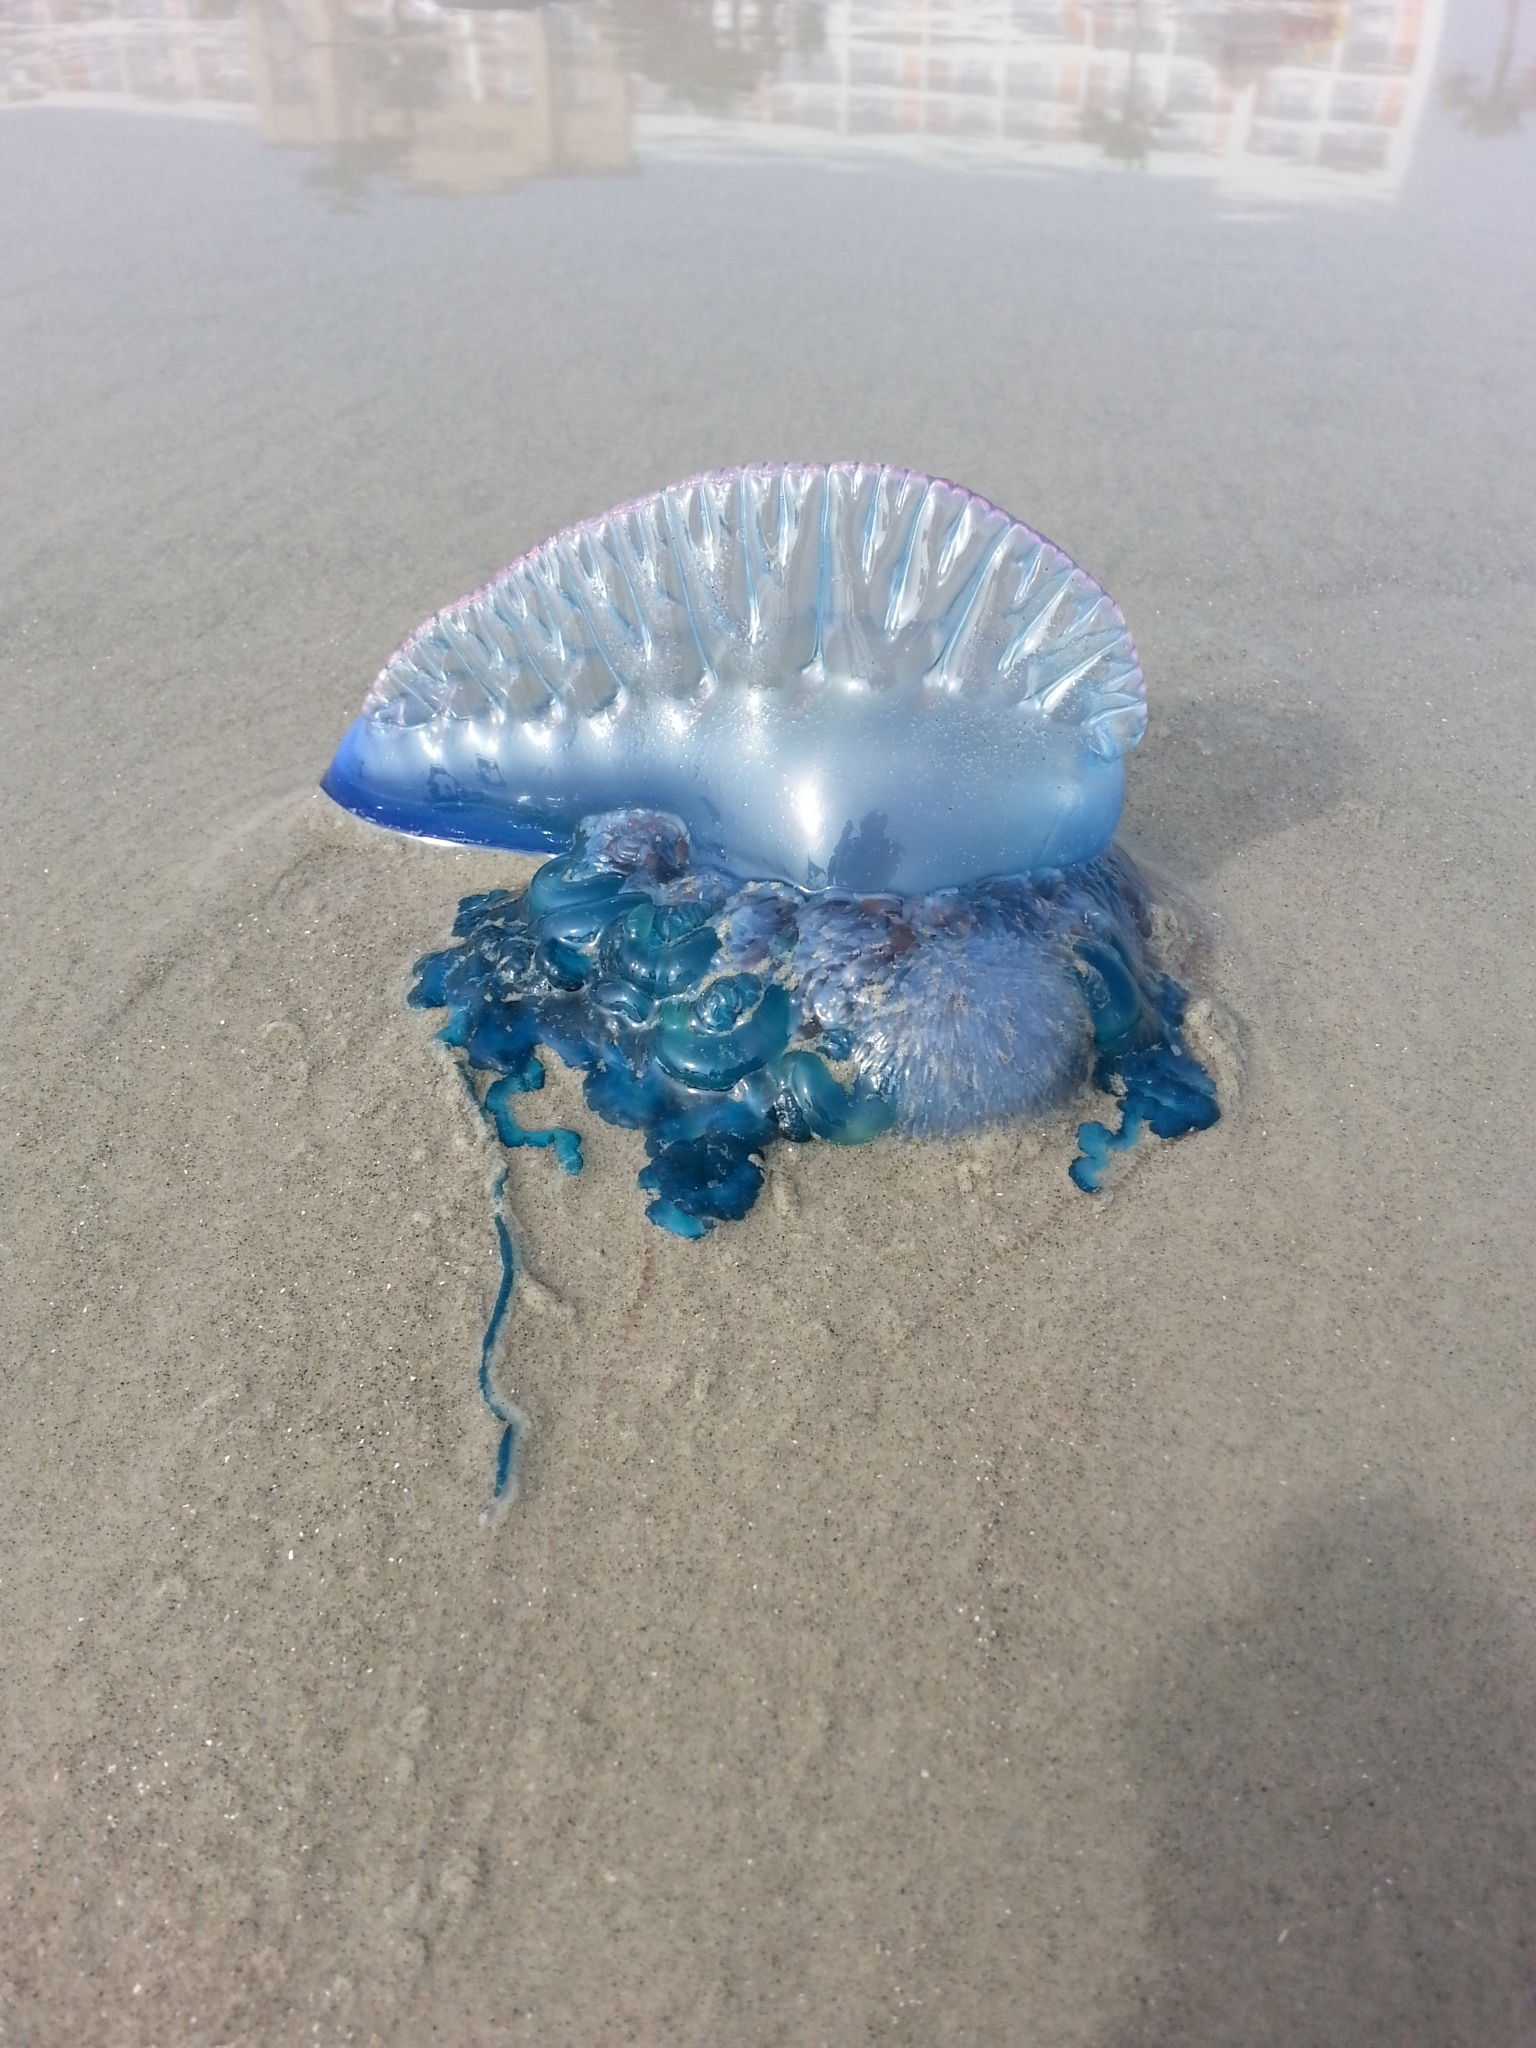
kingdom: Animalia
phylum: Cnidaria
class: Hydrozoa
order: Siphonophorae
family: Physaliidae
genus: Physalia
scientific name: Physalia physalis
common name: Portuguese man-of-war
